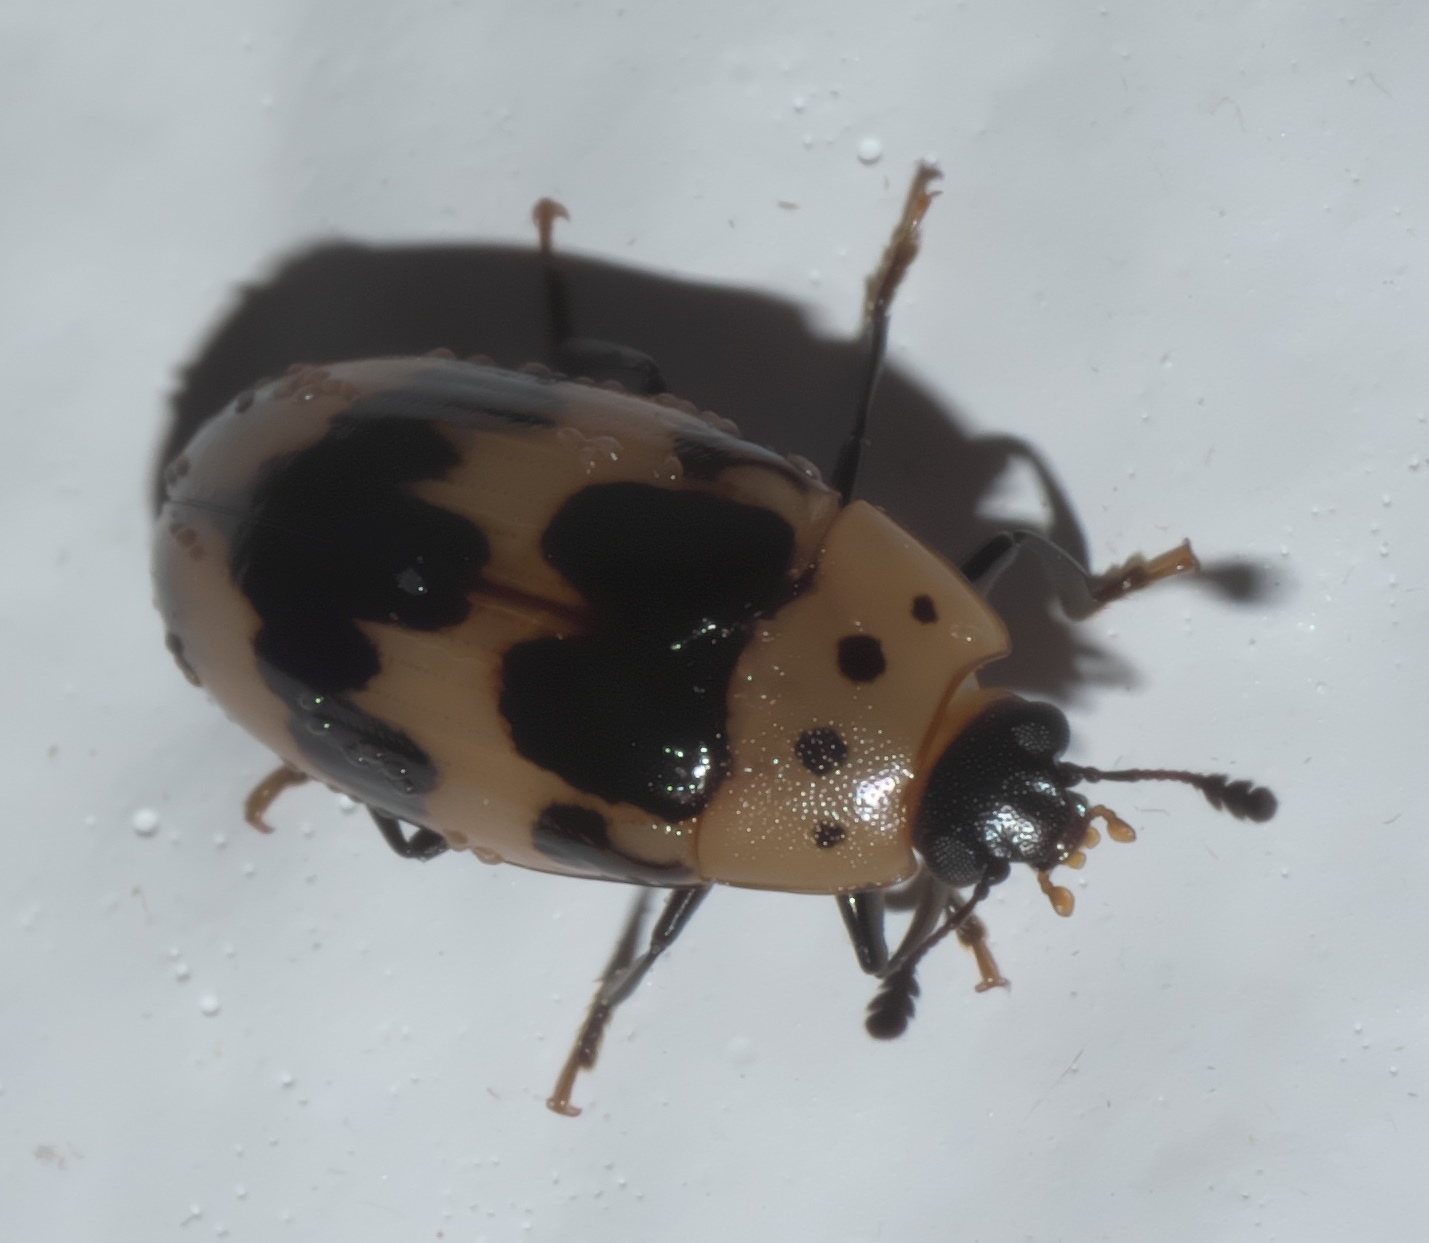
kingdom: Animalia
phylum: Arthropoda
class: Insecta
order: Coleoptera
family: Erotylidae
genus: Ischyrus
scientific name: Ischyrus quadripunctatus
